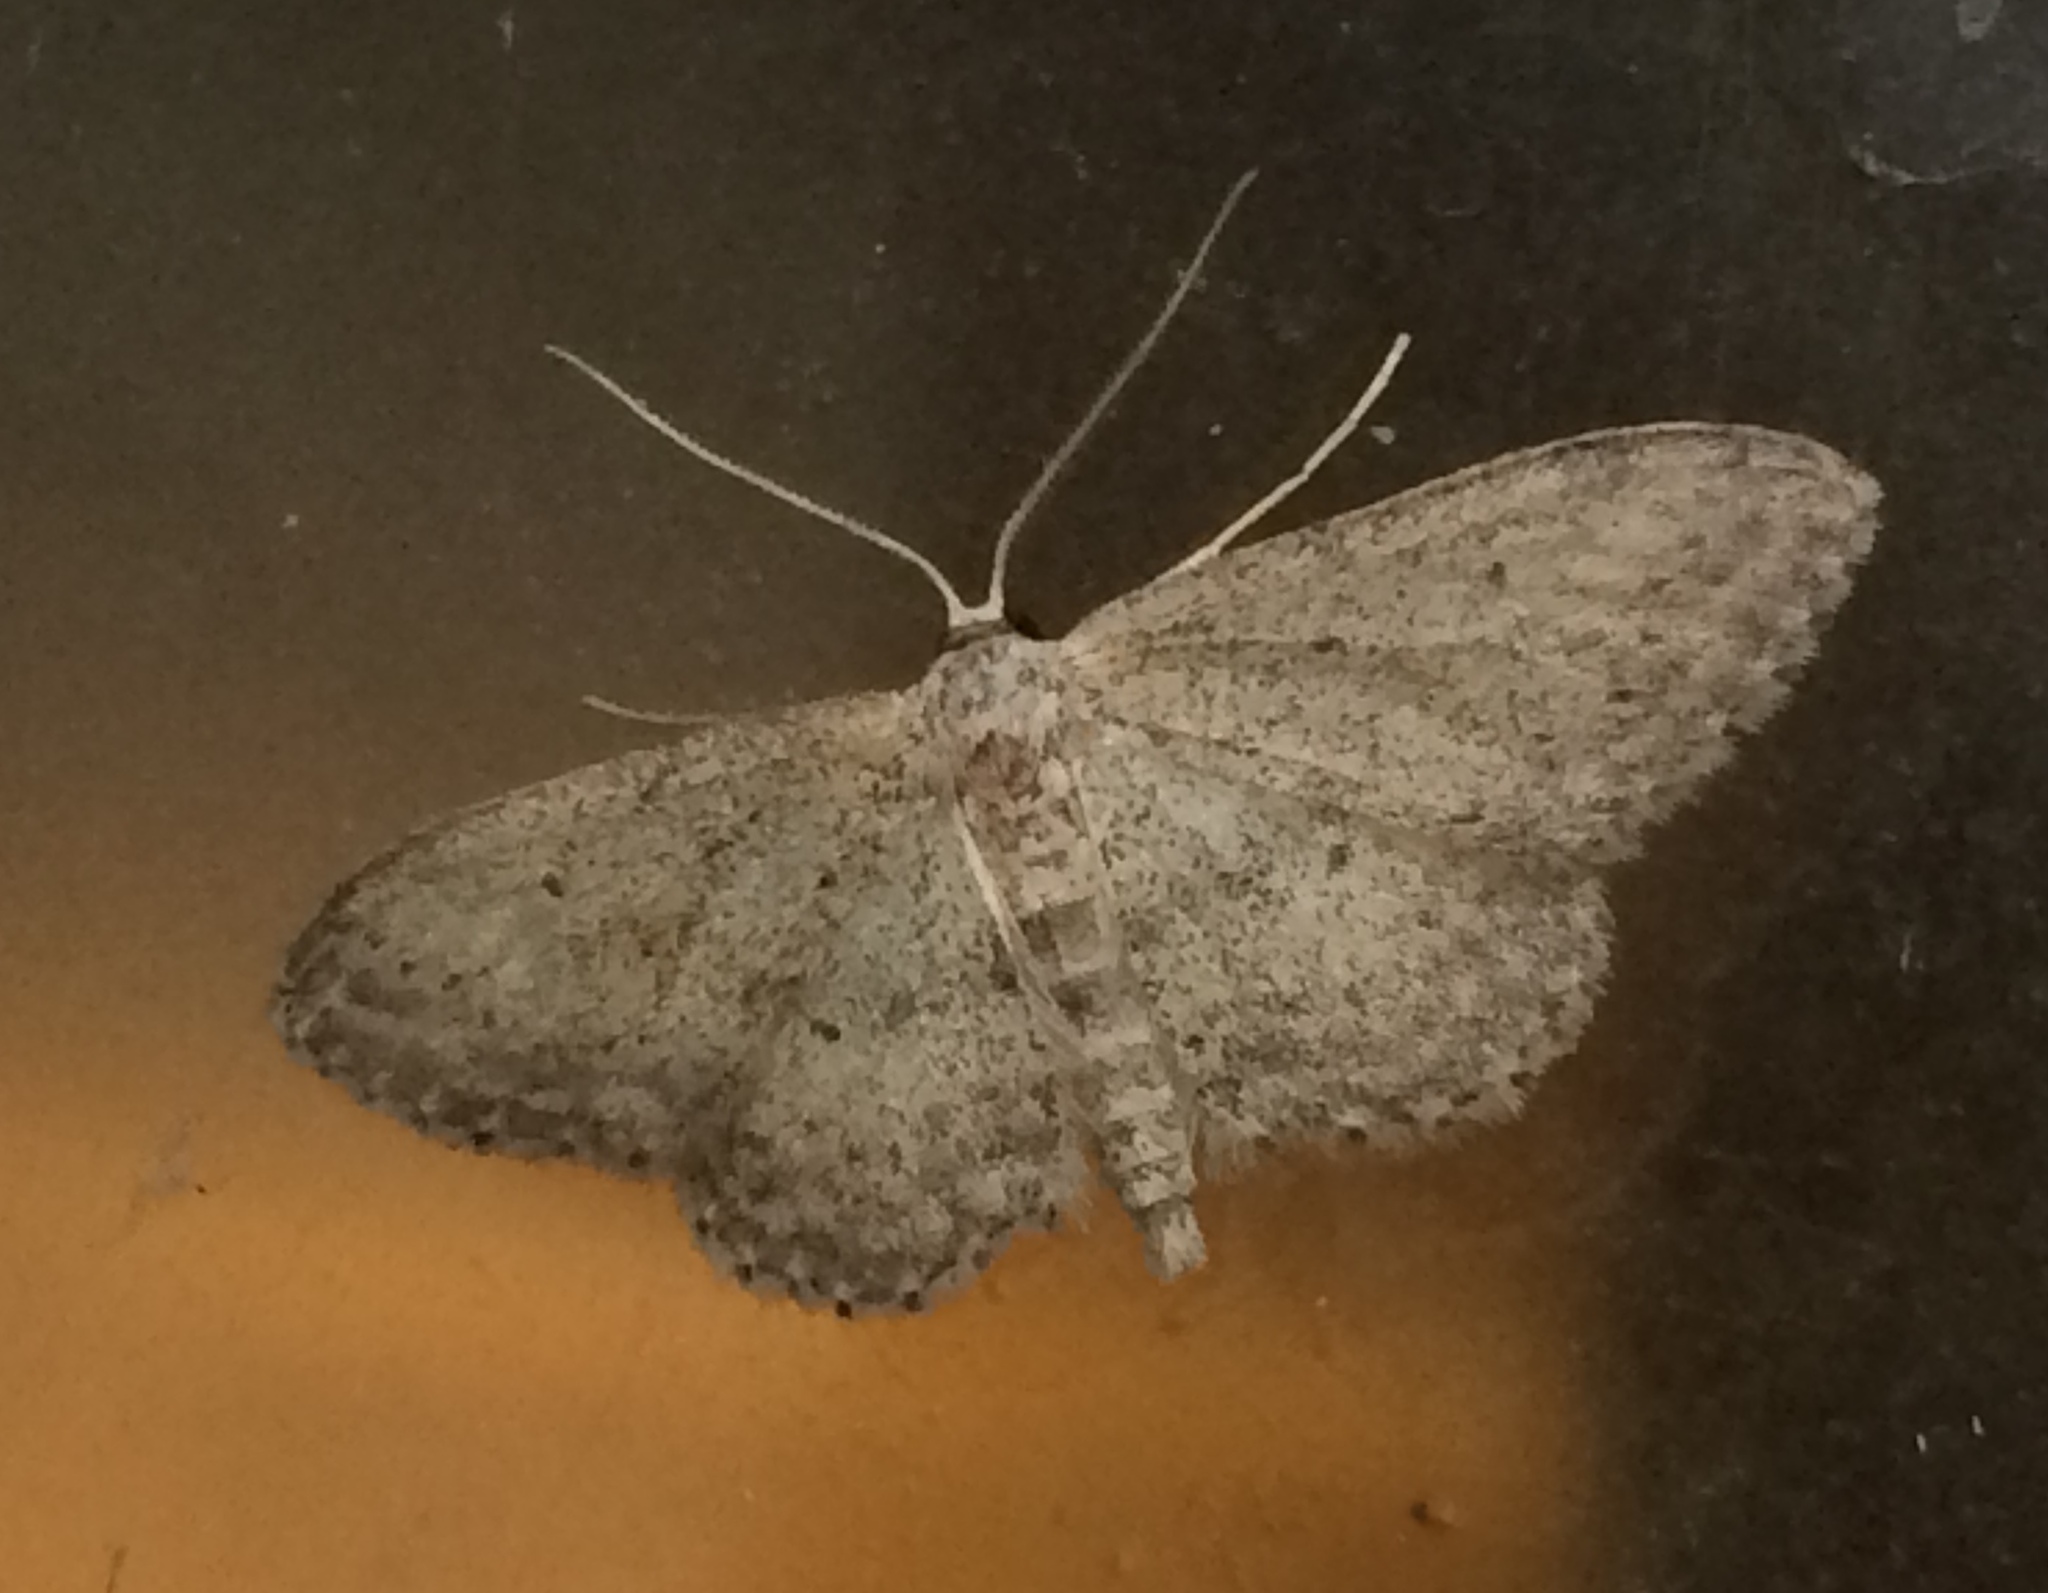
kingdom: Animalia
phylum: Arthropoda
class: Insecta
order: Lepidoptera
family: Geometridae
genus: Idaea
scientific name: Idaea seriata
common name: Small dusty wave
